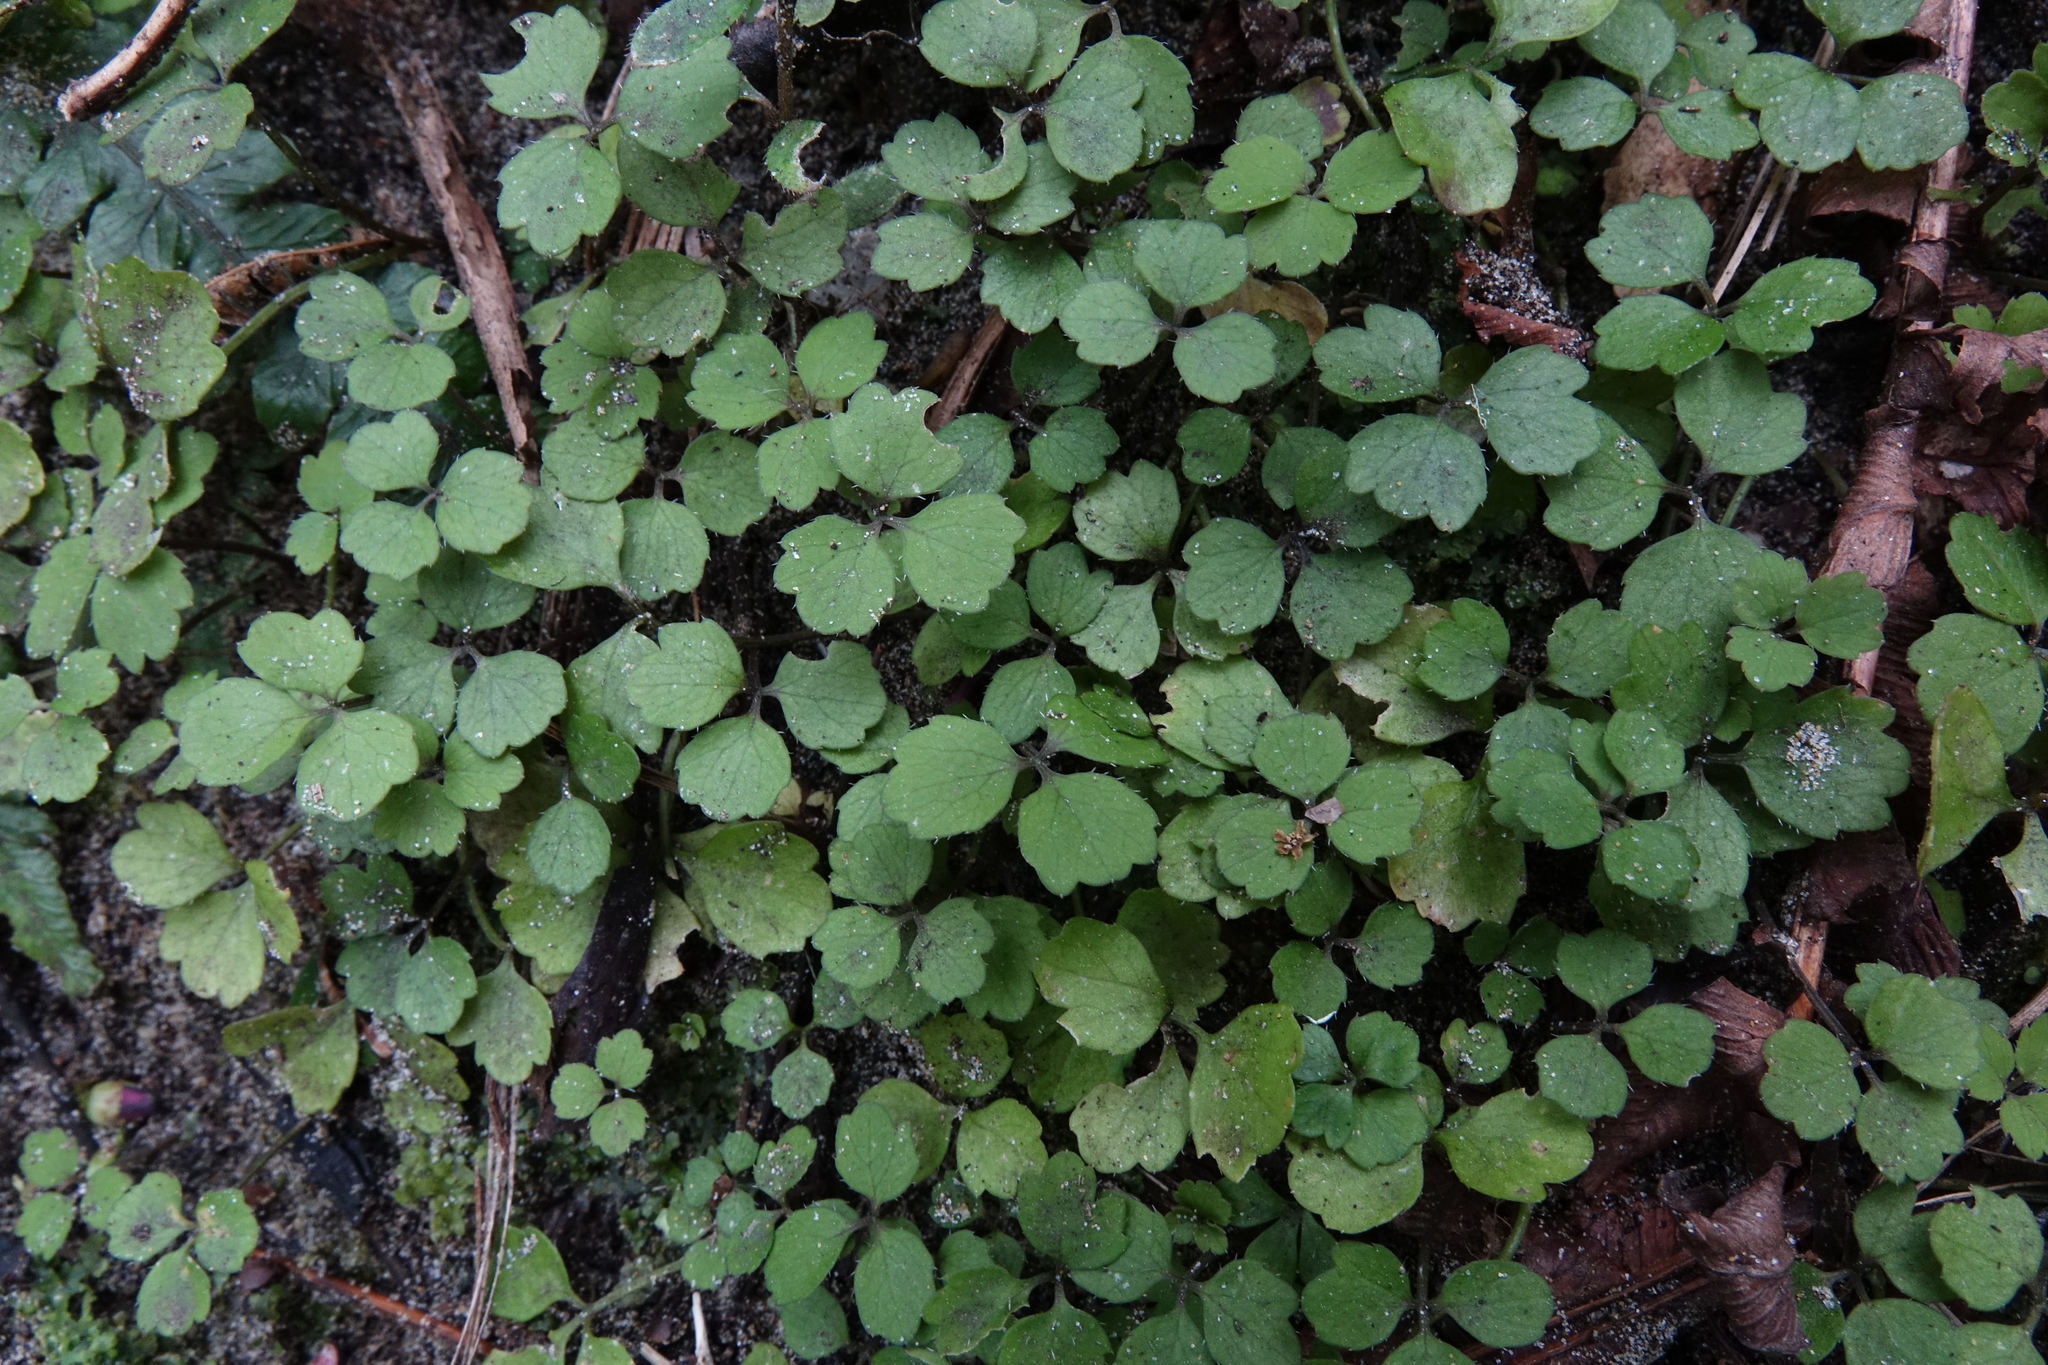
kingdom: Plantae
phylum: Tracheophyta
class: Magnoliopsida
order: Apiales
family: Apiaceae
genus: Azorella
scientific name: Azorella hookeri
